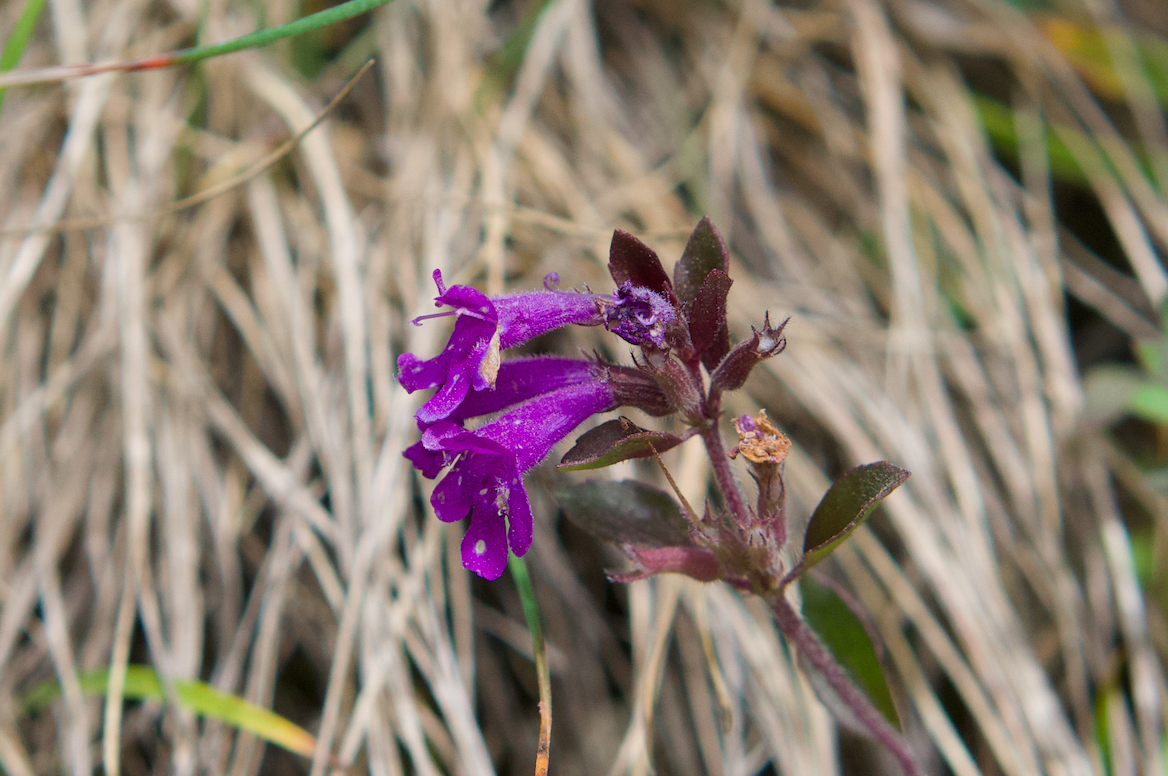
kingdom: Plantae
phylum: Tracheophyta
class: Magnoliopsida
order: Lamiales
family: Lamiaceae
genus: Clinopodium
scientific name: Clinopodium alpinum
